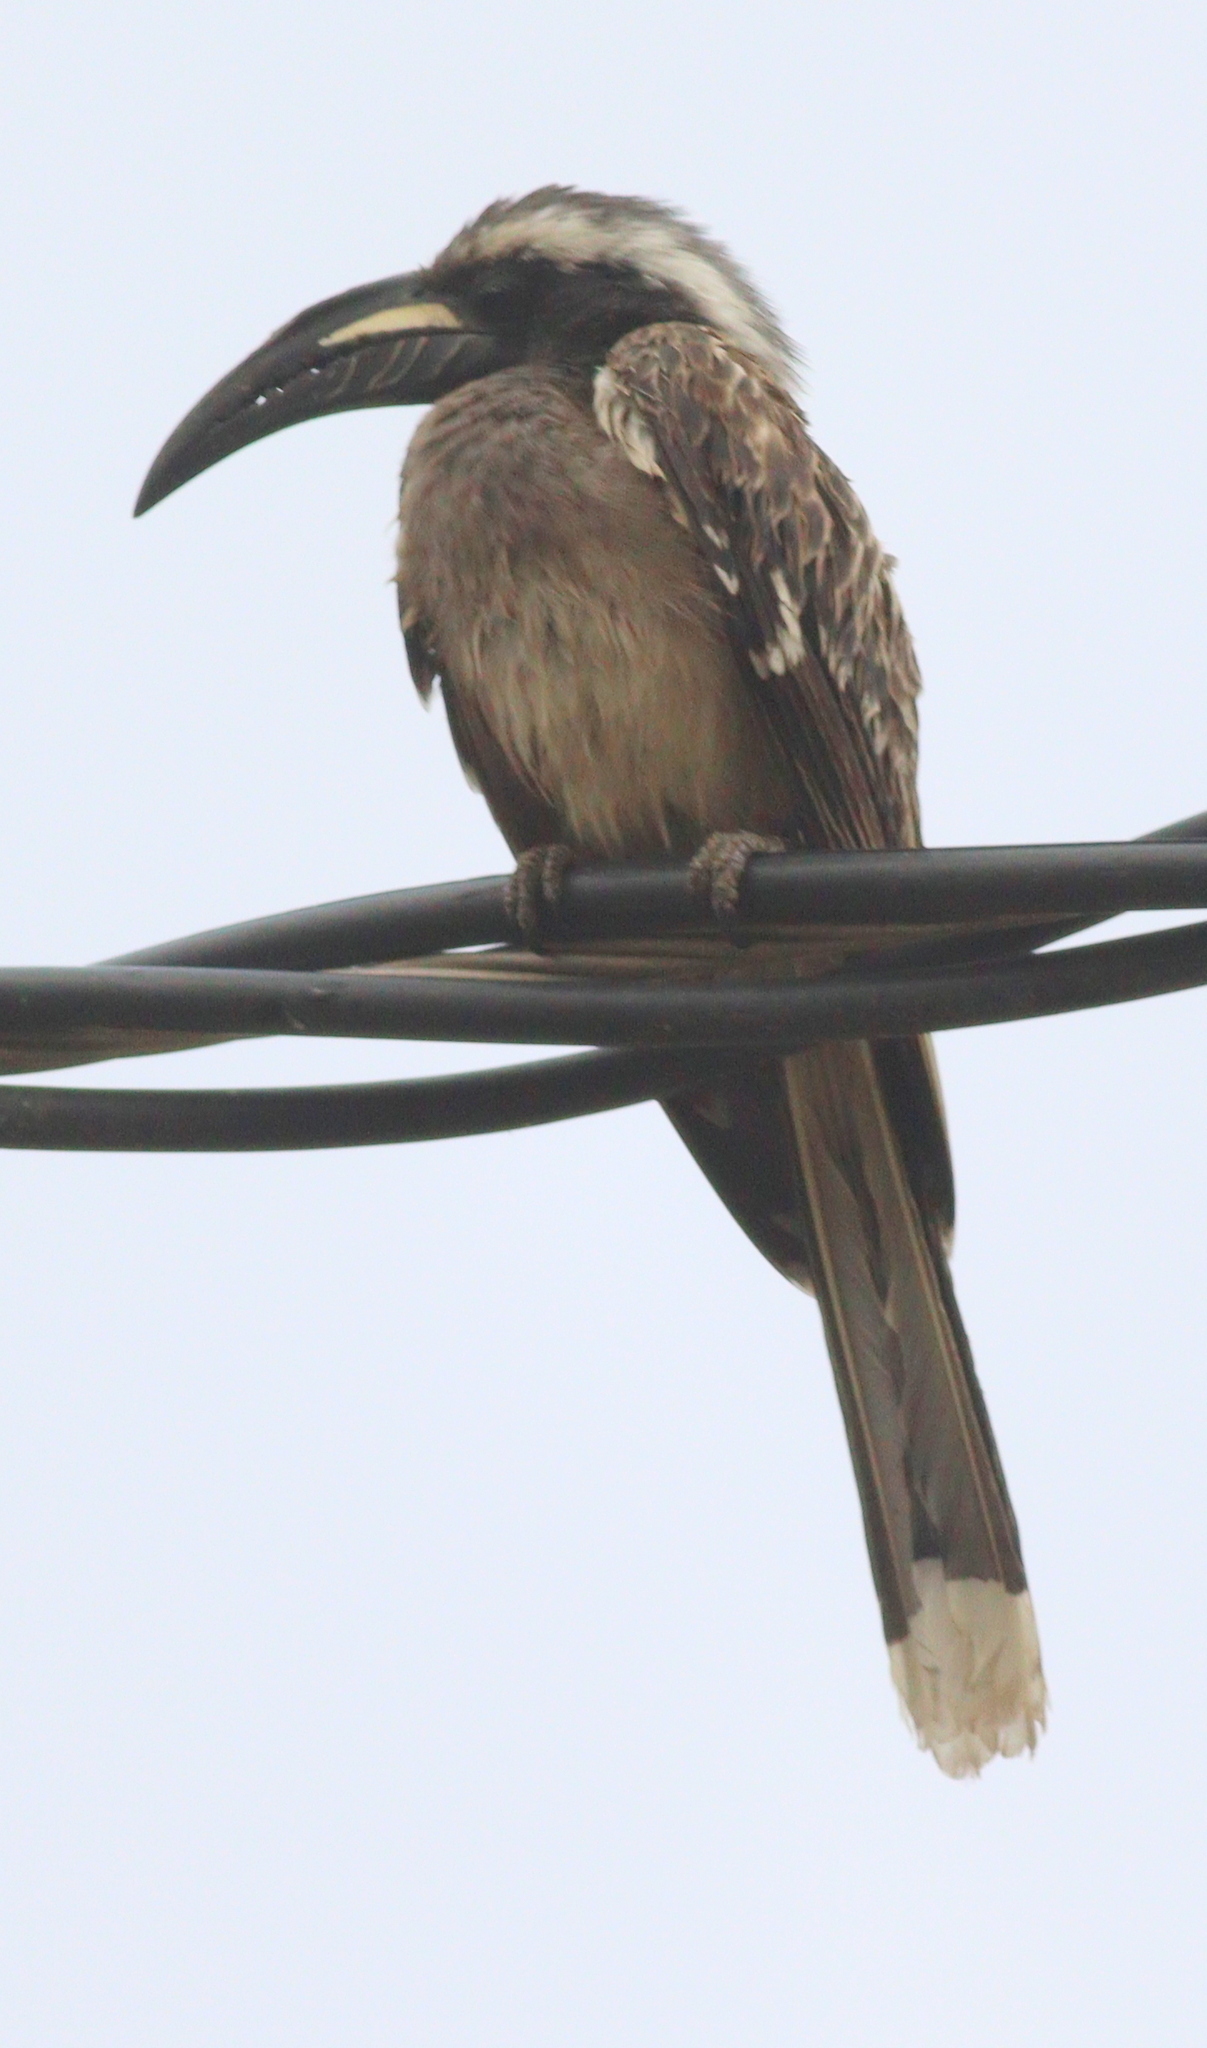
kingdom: Animalia
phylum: Chordata
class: Aves
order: Bucerotiformes
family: Bucerotidae
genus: Lophoceros
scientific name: Lophoceros nasutus
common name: African grey hornbill
